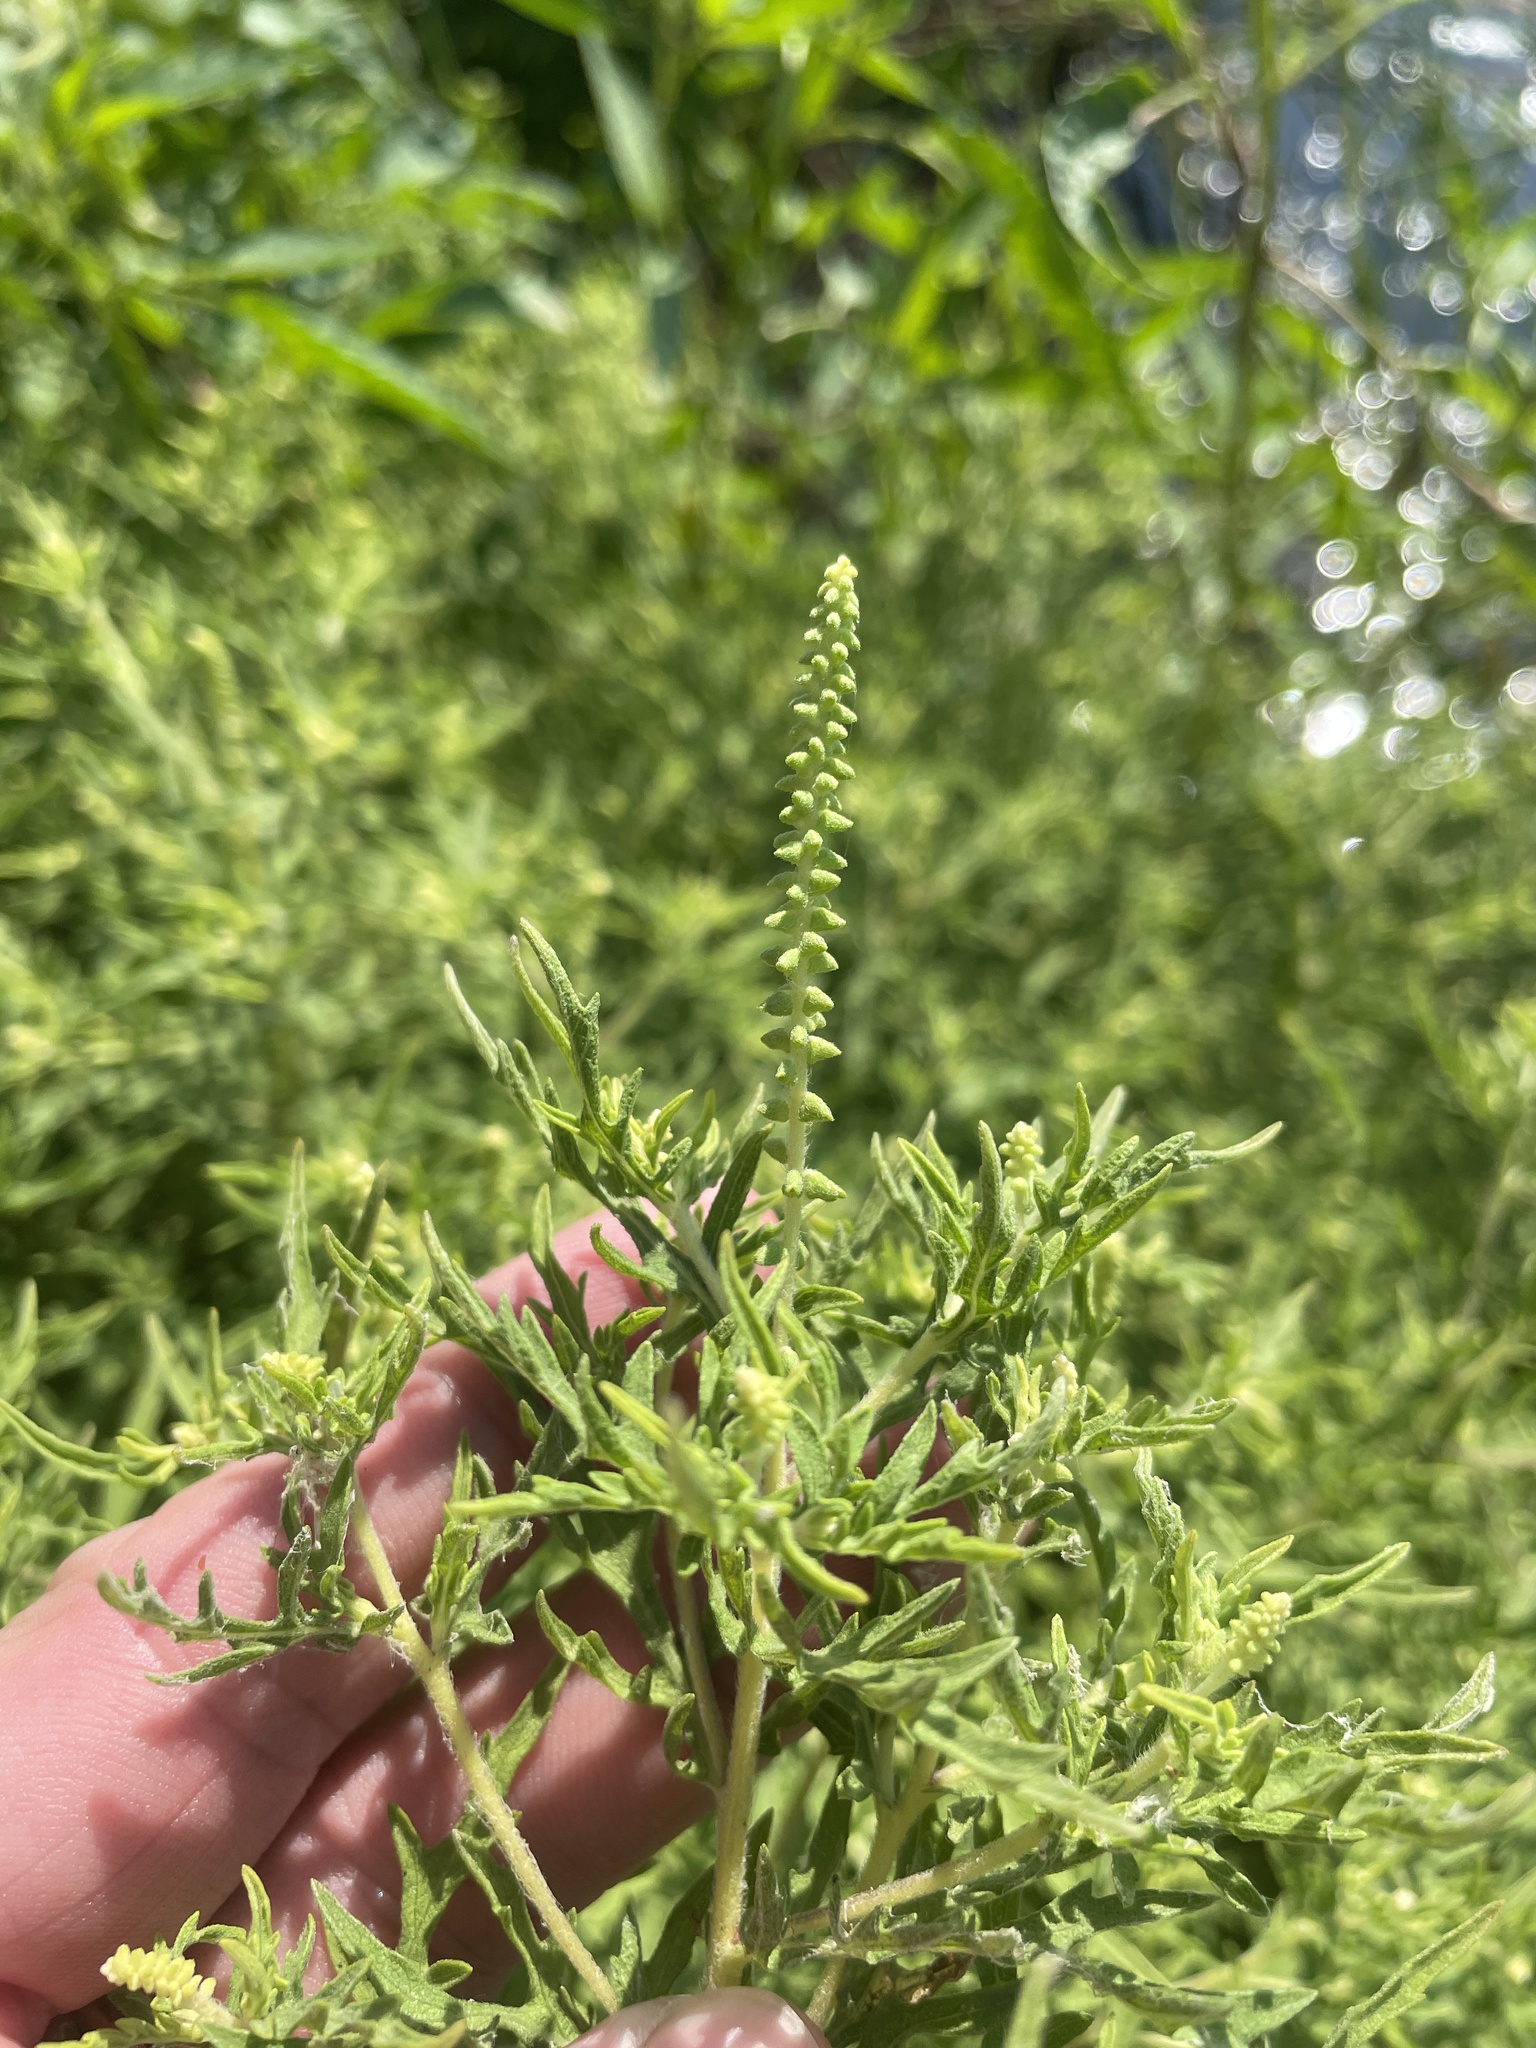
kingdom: Plantae
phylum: Tracheophyta
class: Magnoliopsida
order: Asterales
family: Asteraceae
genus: Ambrosia
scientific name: Ambrosia psilostachya
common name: Perennial ragweed
